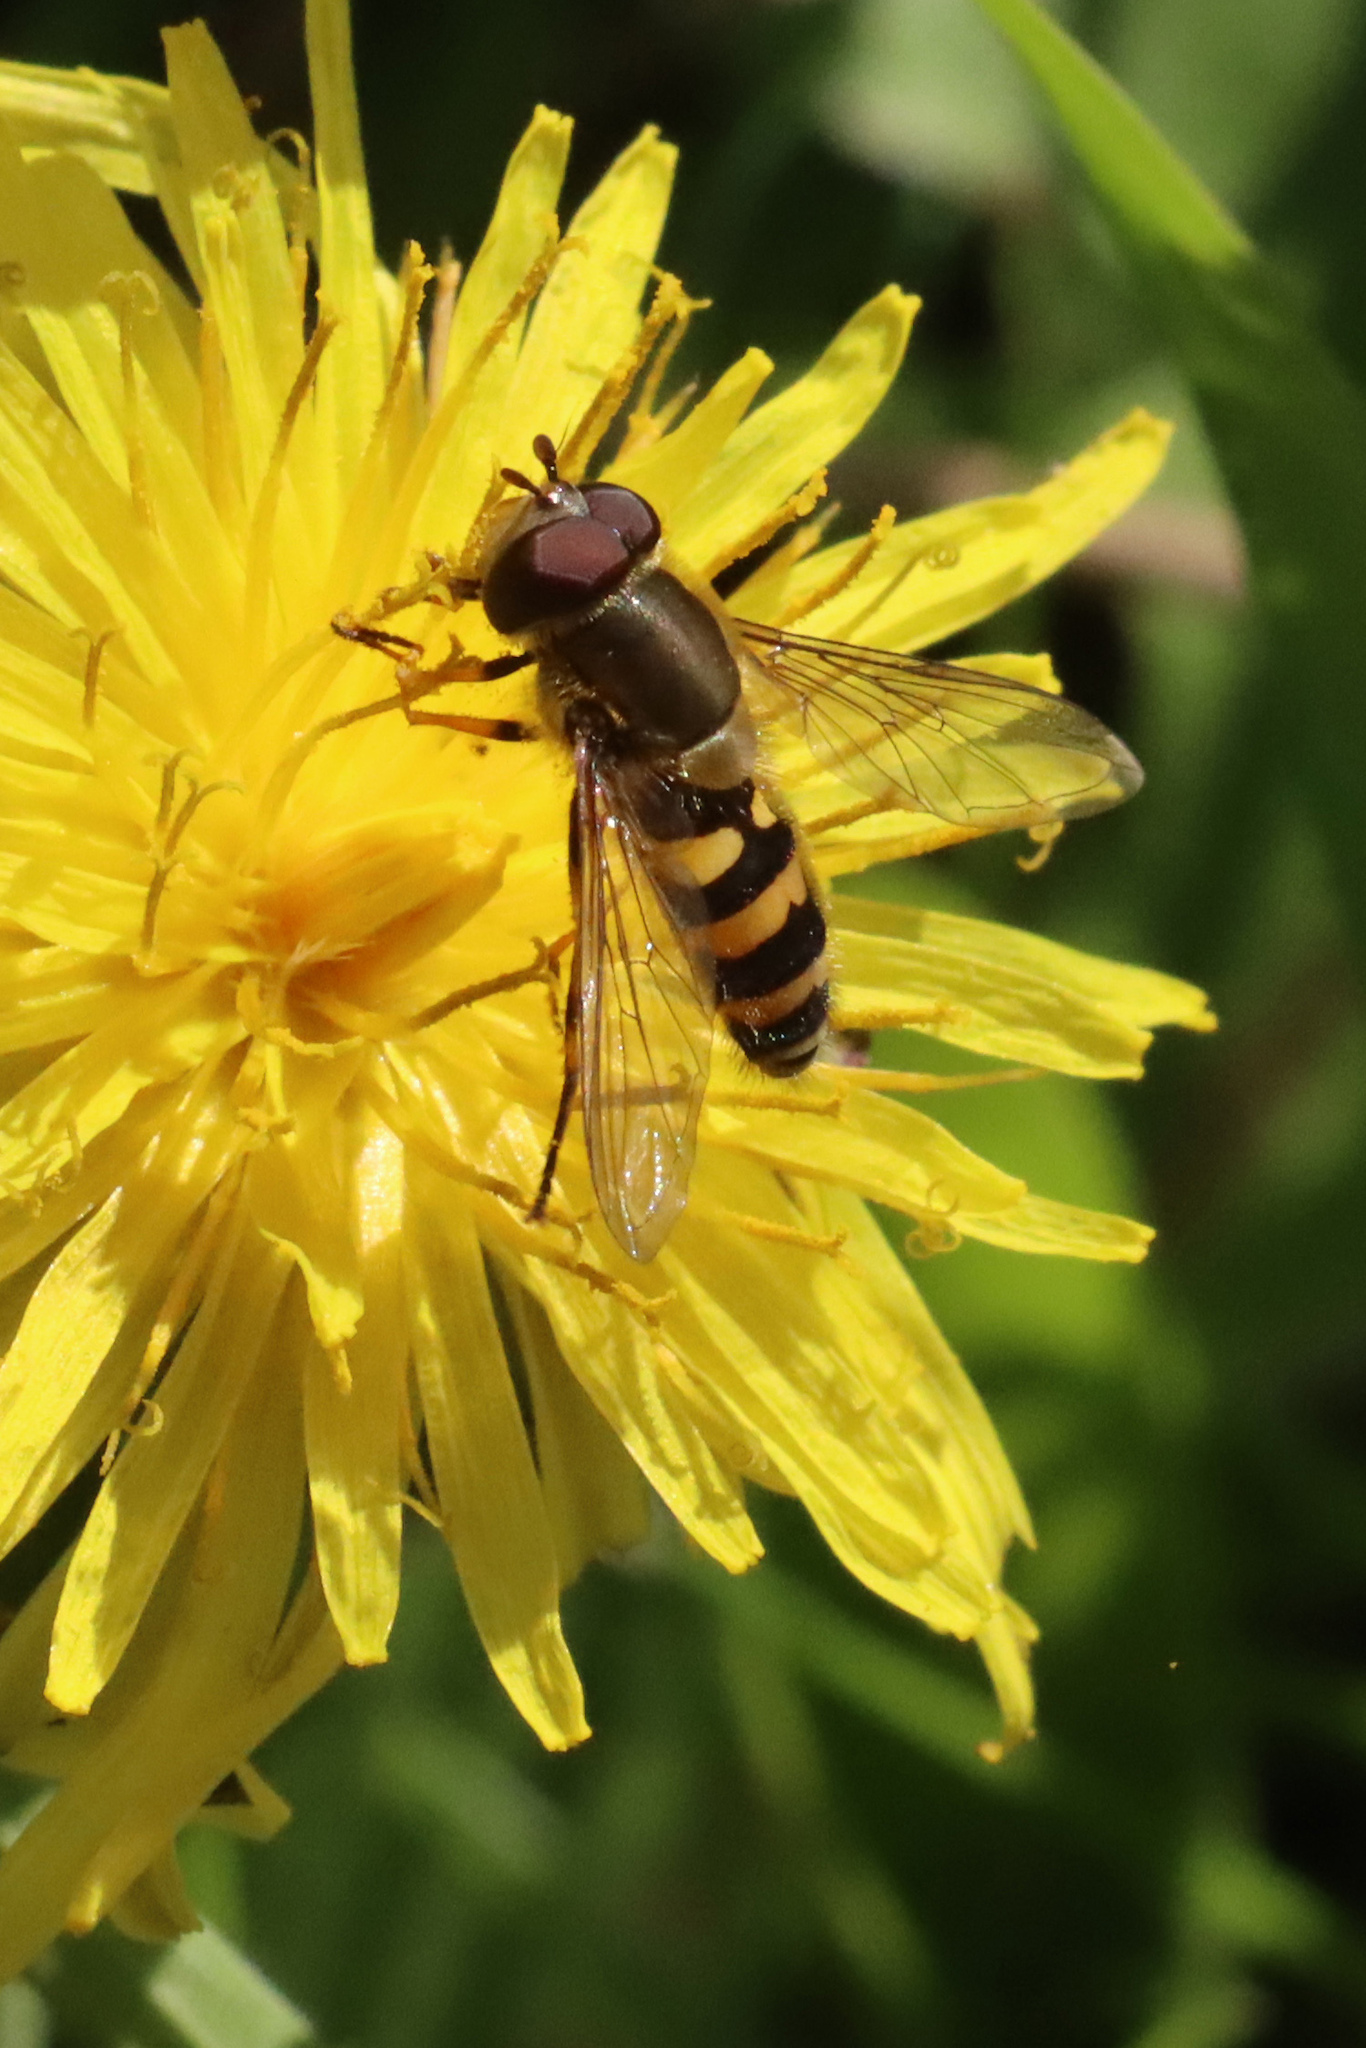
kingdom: Animalia
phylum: Arthropoda
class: Insecta
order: Diptera
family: Syrphidae
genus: Syrphus
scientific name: Syrphus
